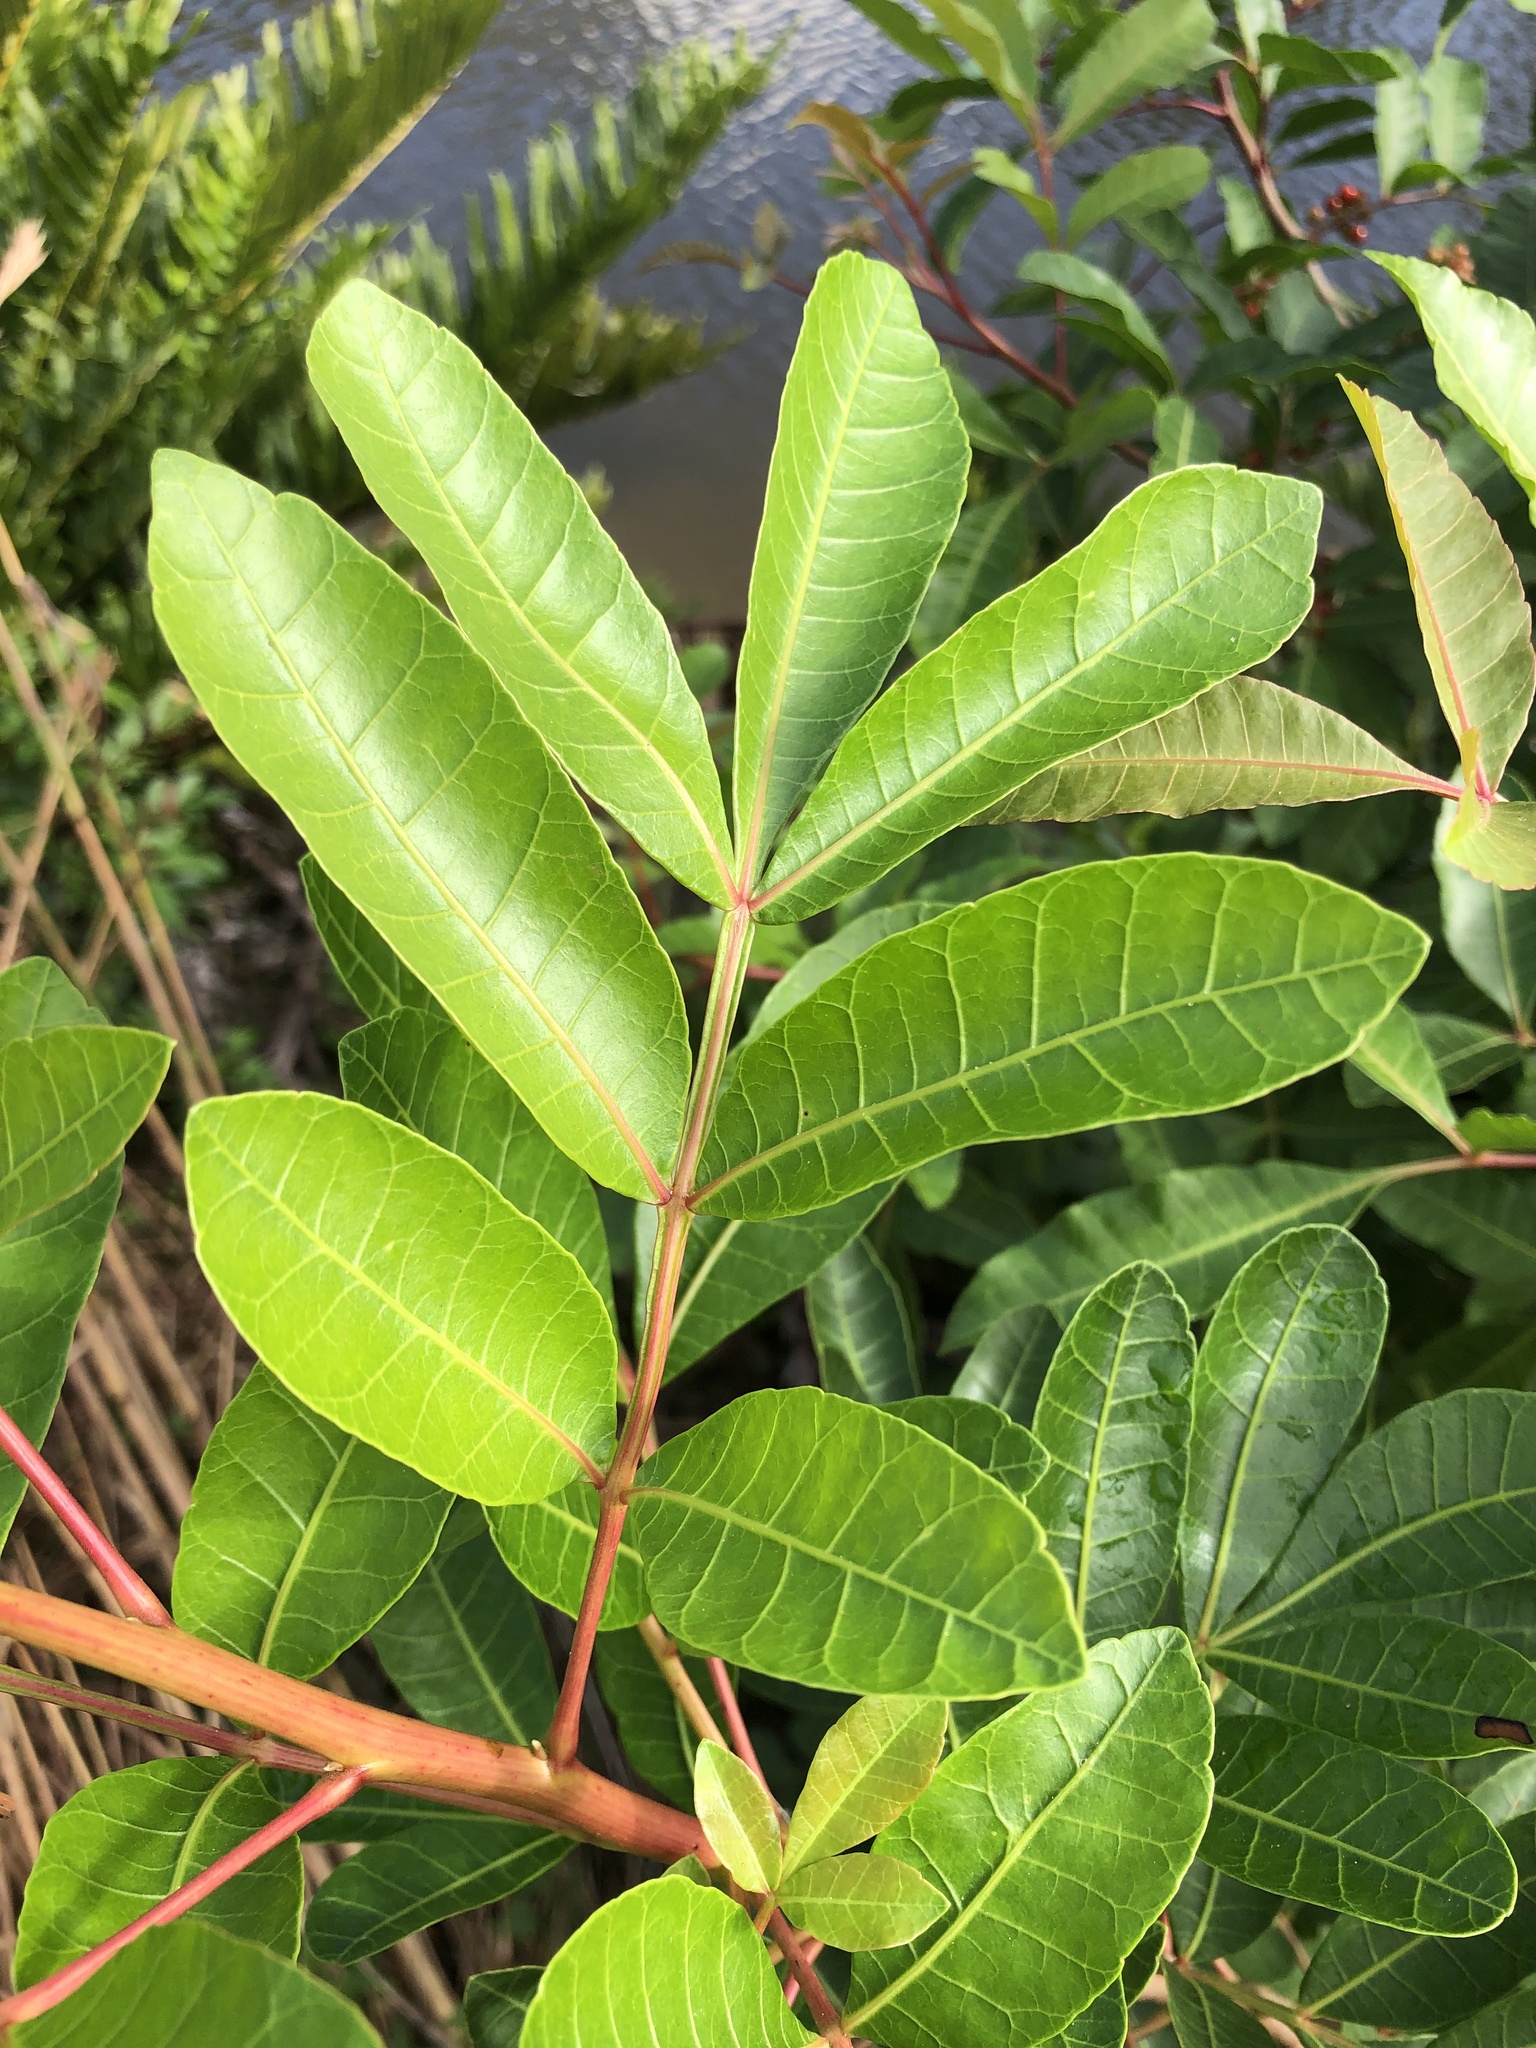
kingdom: Plantae
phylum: Tracheophyta
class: Magnoliopsida
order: Sapindales
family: Anacardiaceae
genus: Schinus
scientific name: Schinus terebinthifolia
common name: Brazilian peppertree
